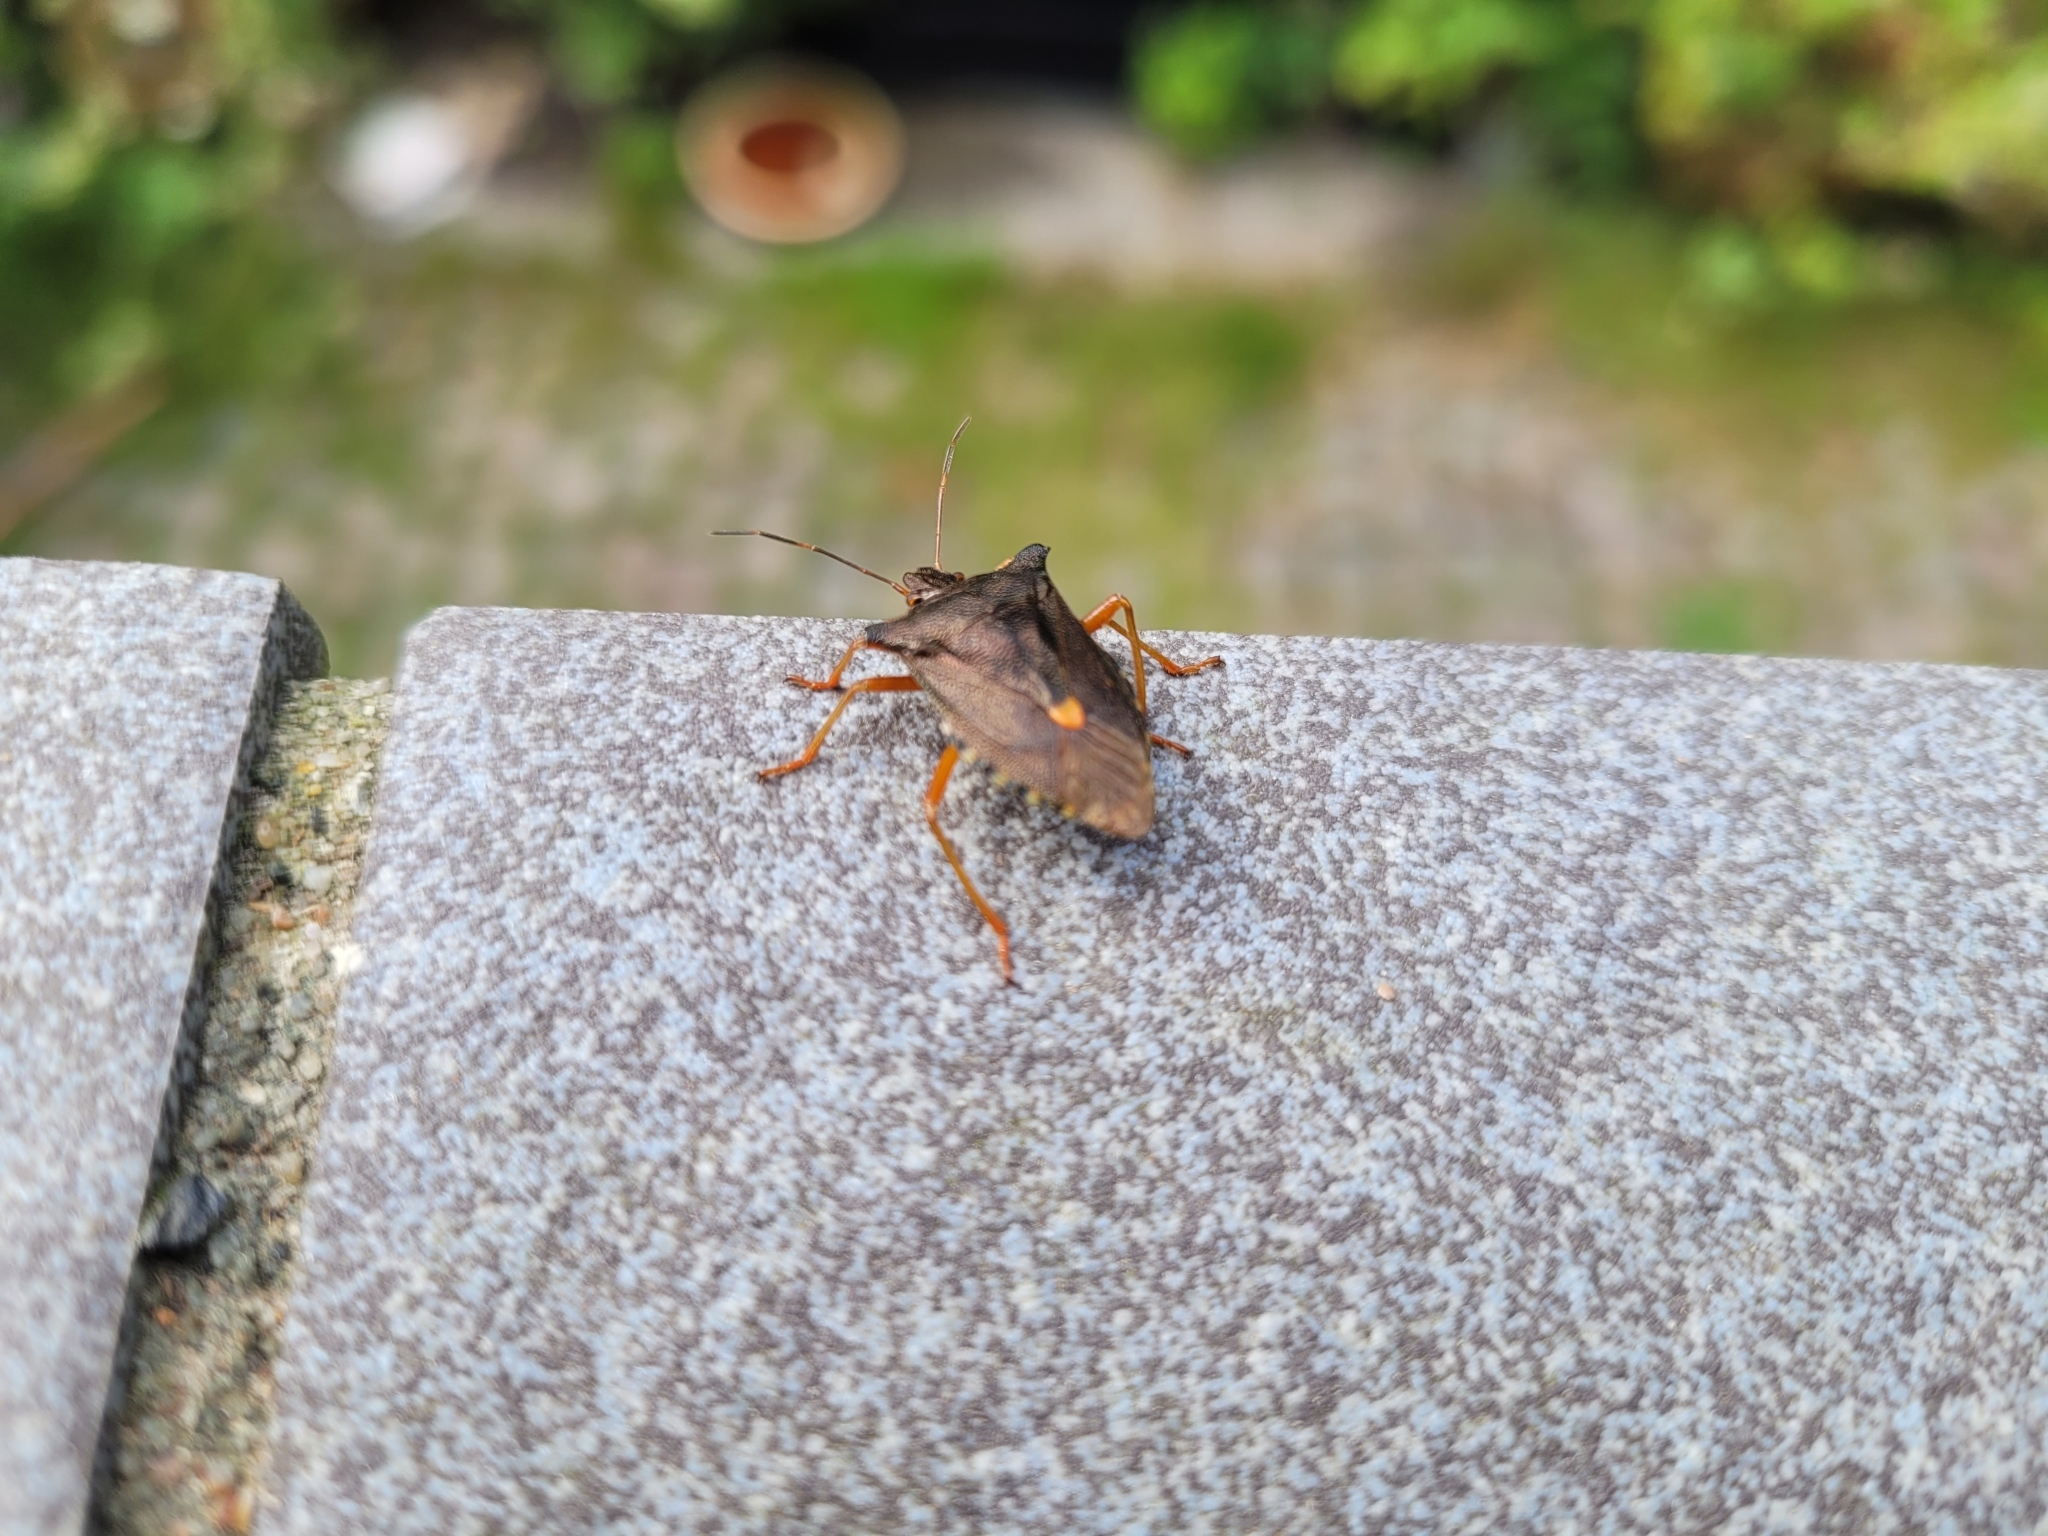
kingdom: Animalia
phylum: Arthropoda
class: Insecta
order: Hemiptera
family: Pentatomidae
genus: Pentatoma
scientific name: Pentatoma rufipes
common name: Forest bug
